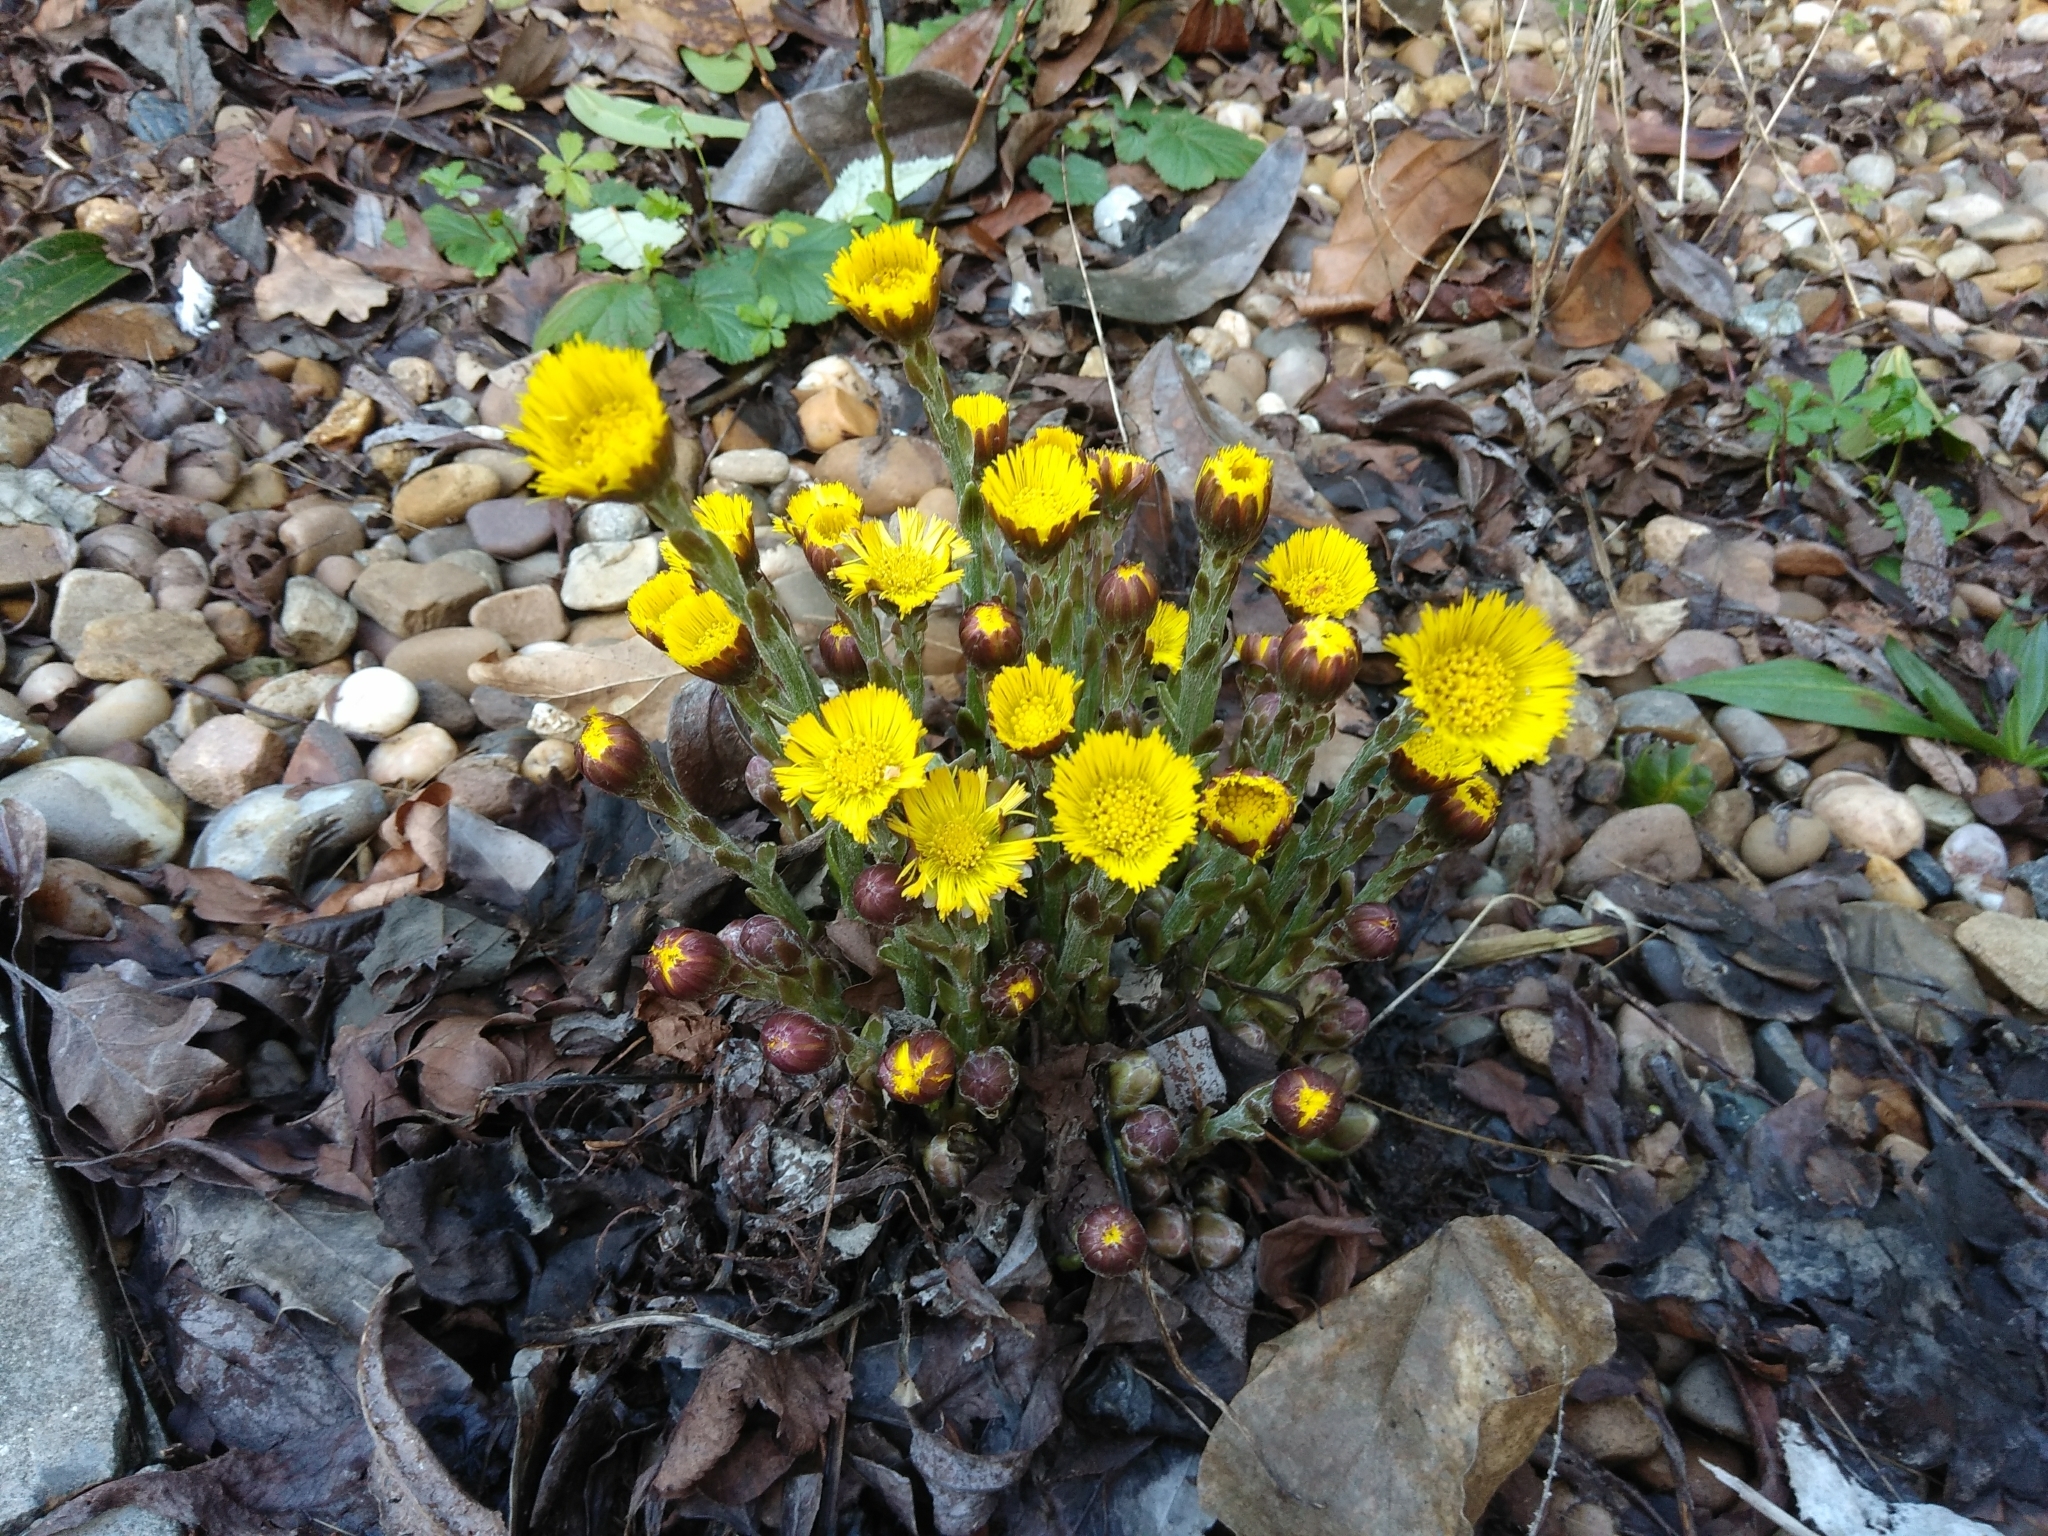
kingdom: Plantae
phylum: Tracheophyta
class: Magnoliopsida
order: Asterales
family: Asteraceae
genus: Tussilago
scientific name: Tussilago farfara
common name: Coltsfoot
